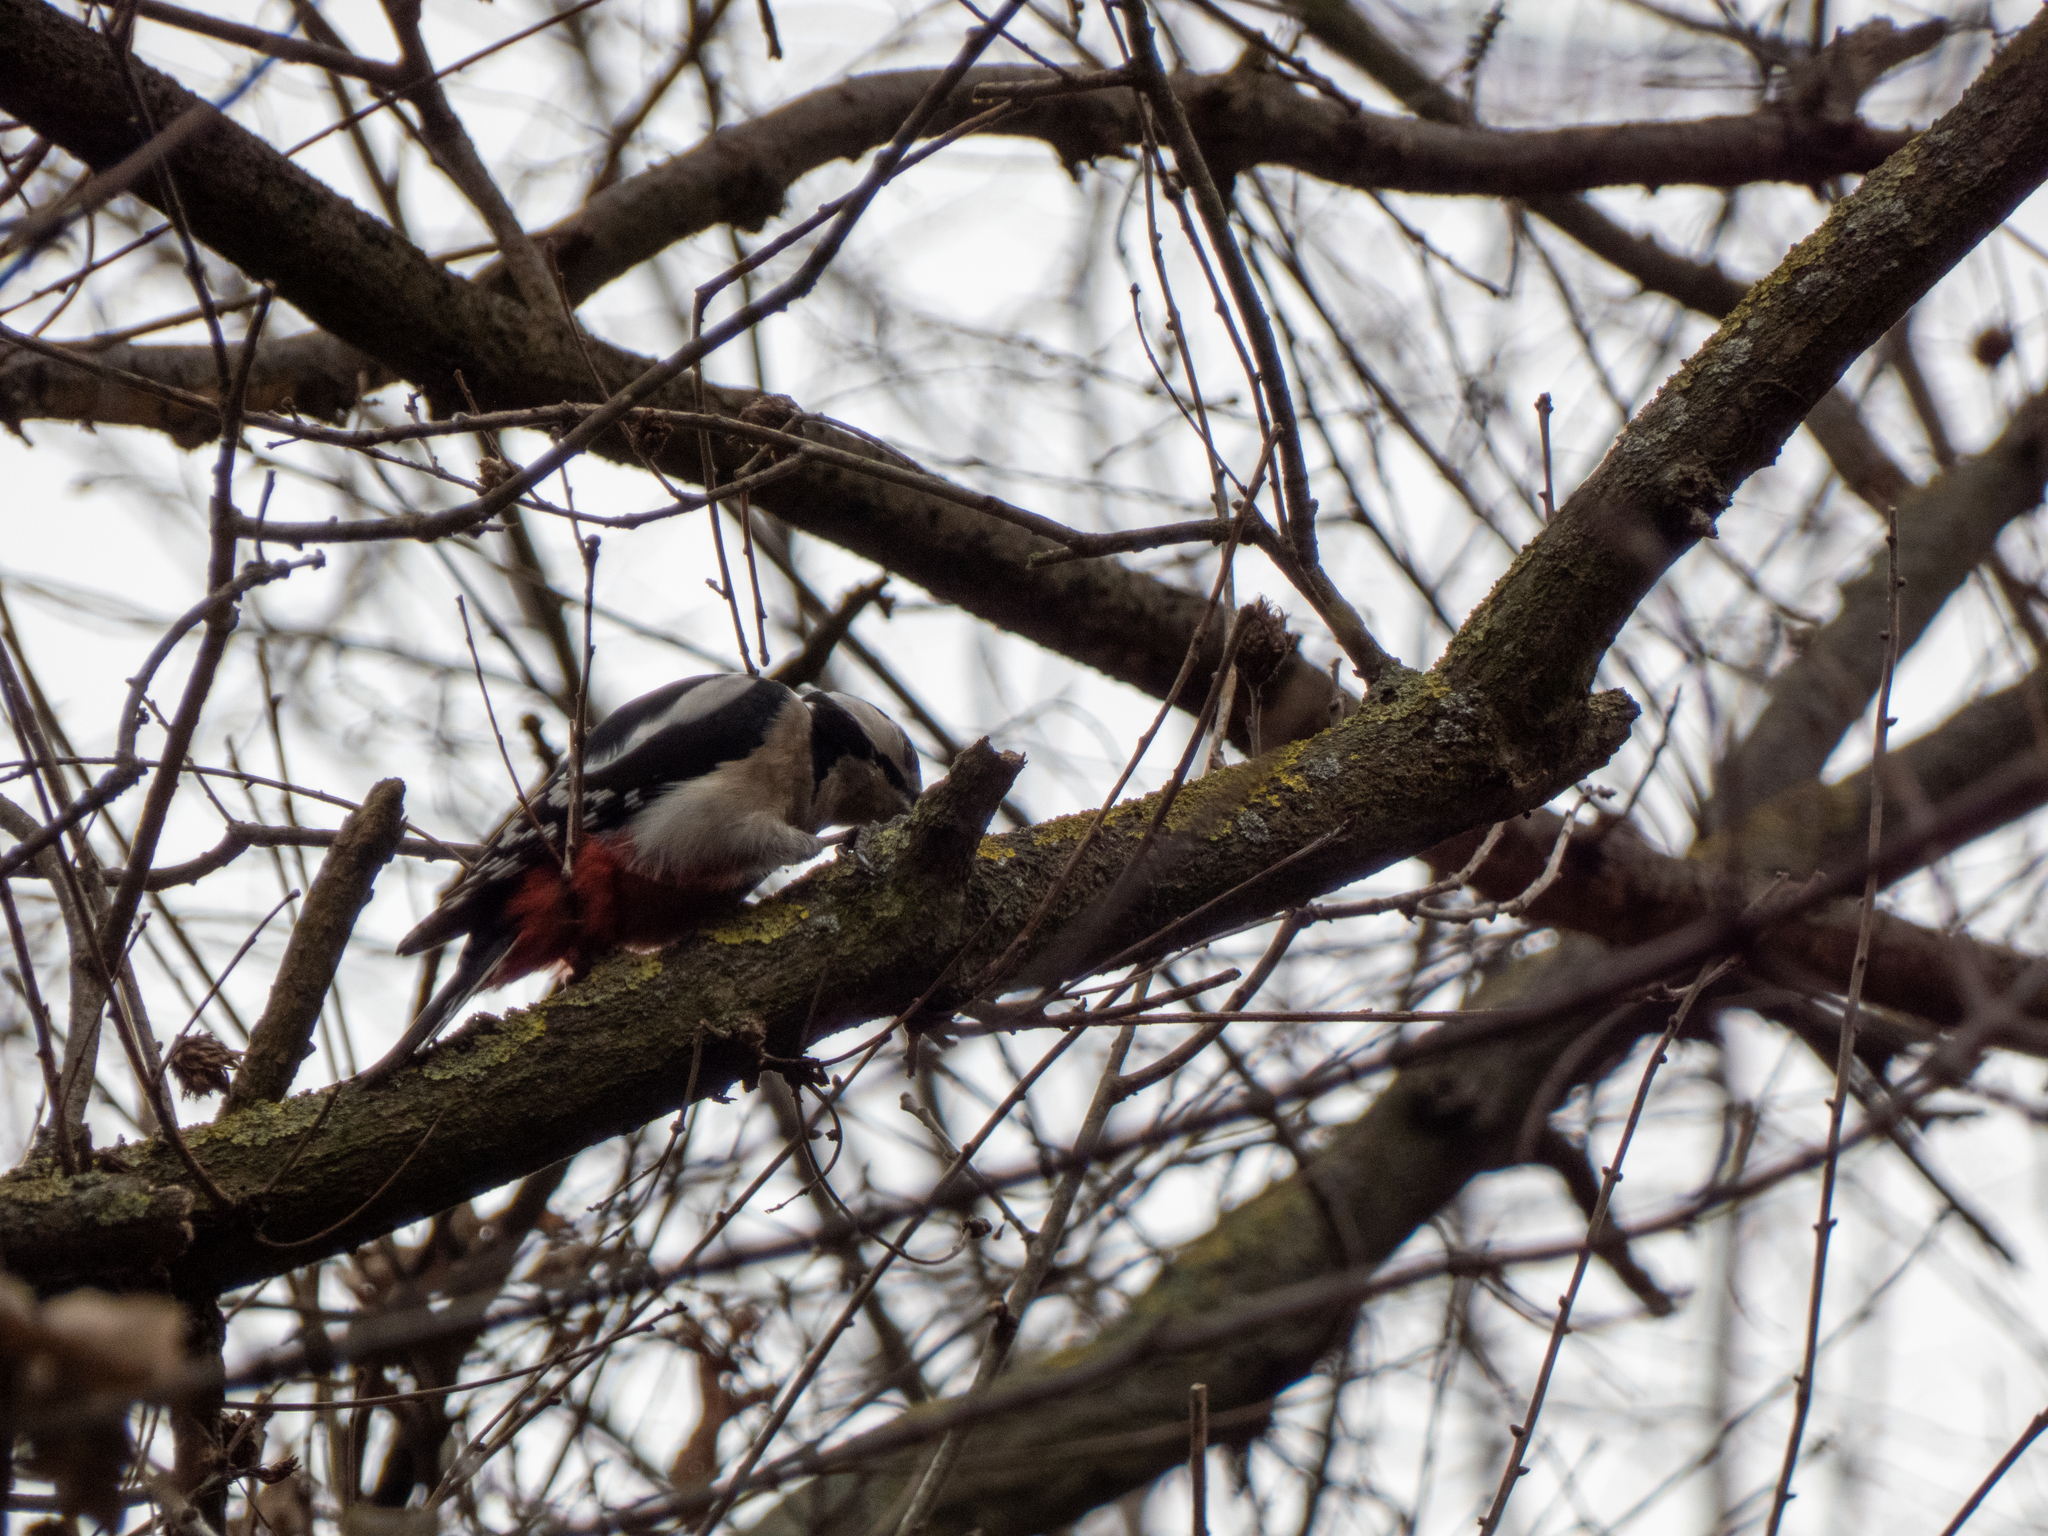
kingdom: Animalia
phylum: Chordata
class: Aves
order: Piciformes
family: Picidae
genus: Dendrocopos
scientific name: Dendrocopos major
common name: Great spotted woodpecker
